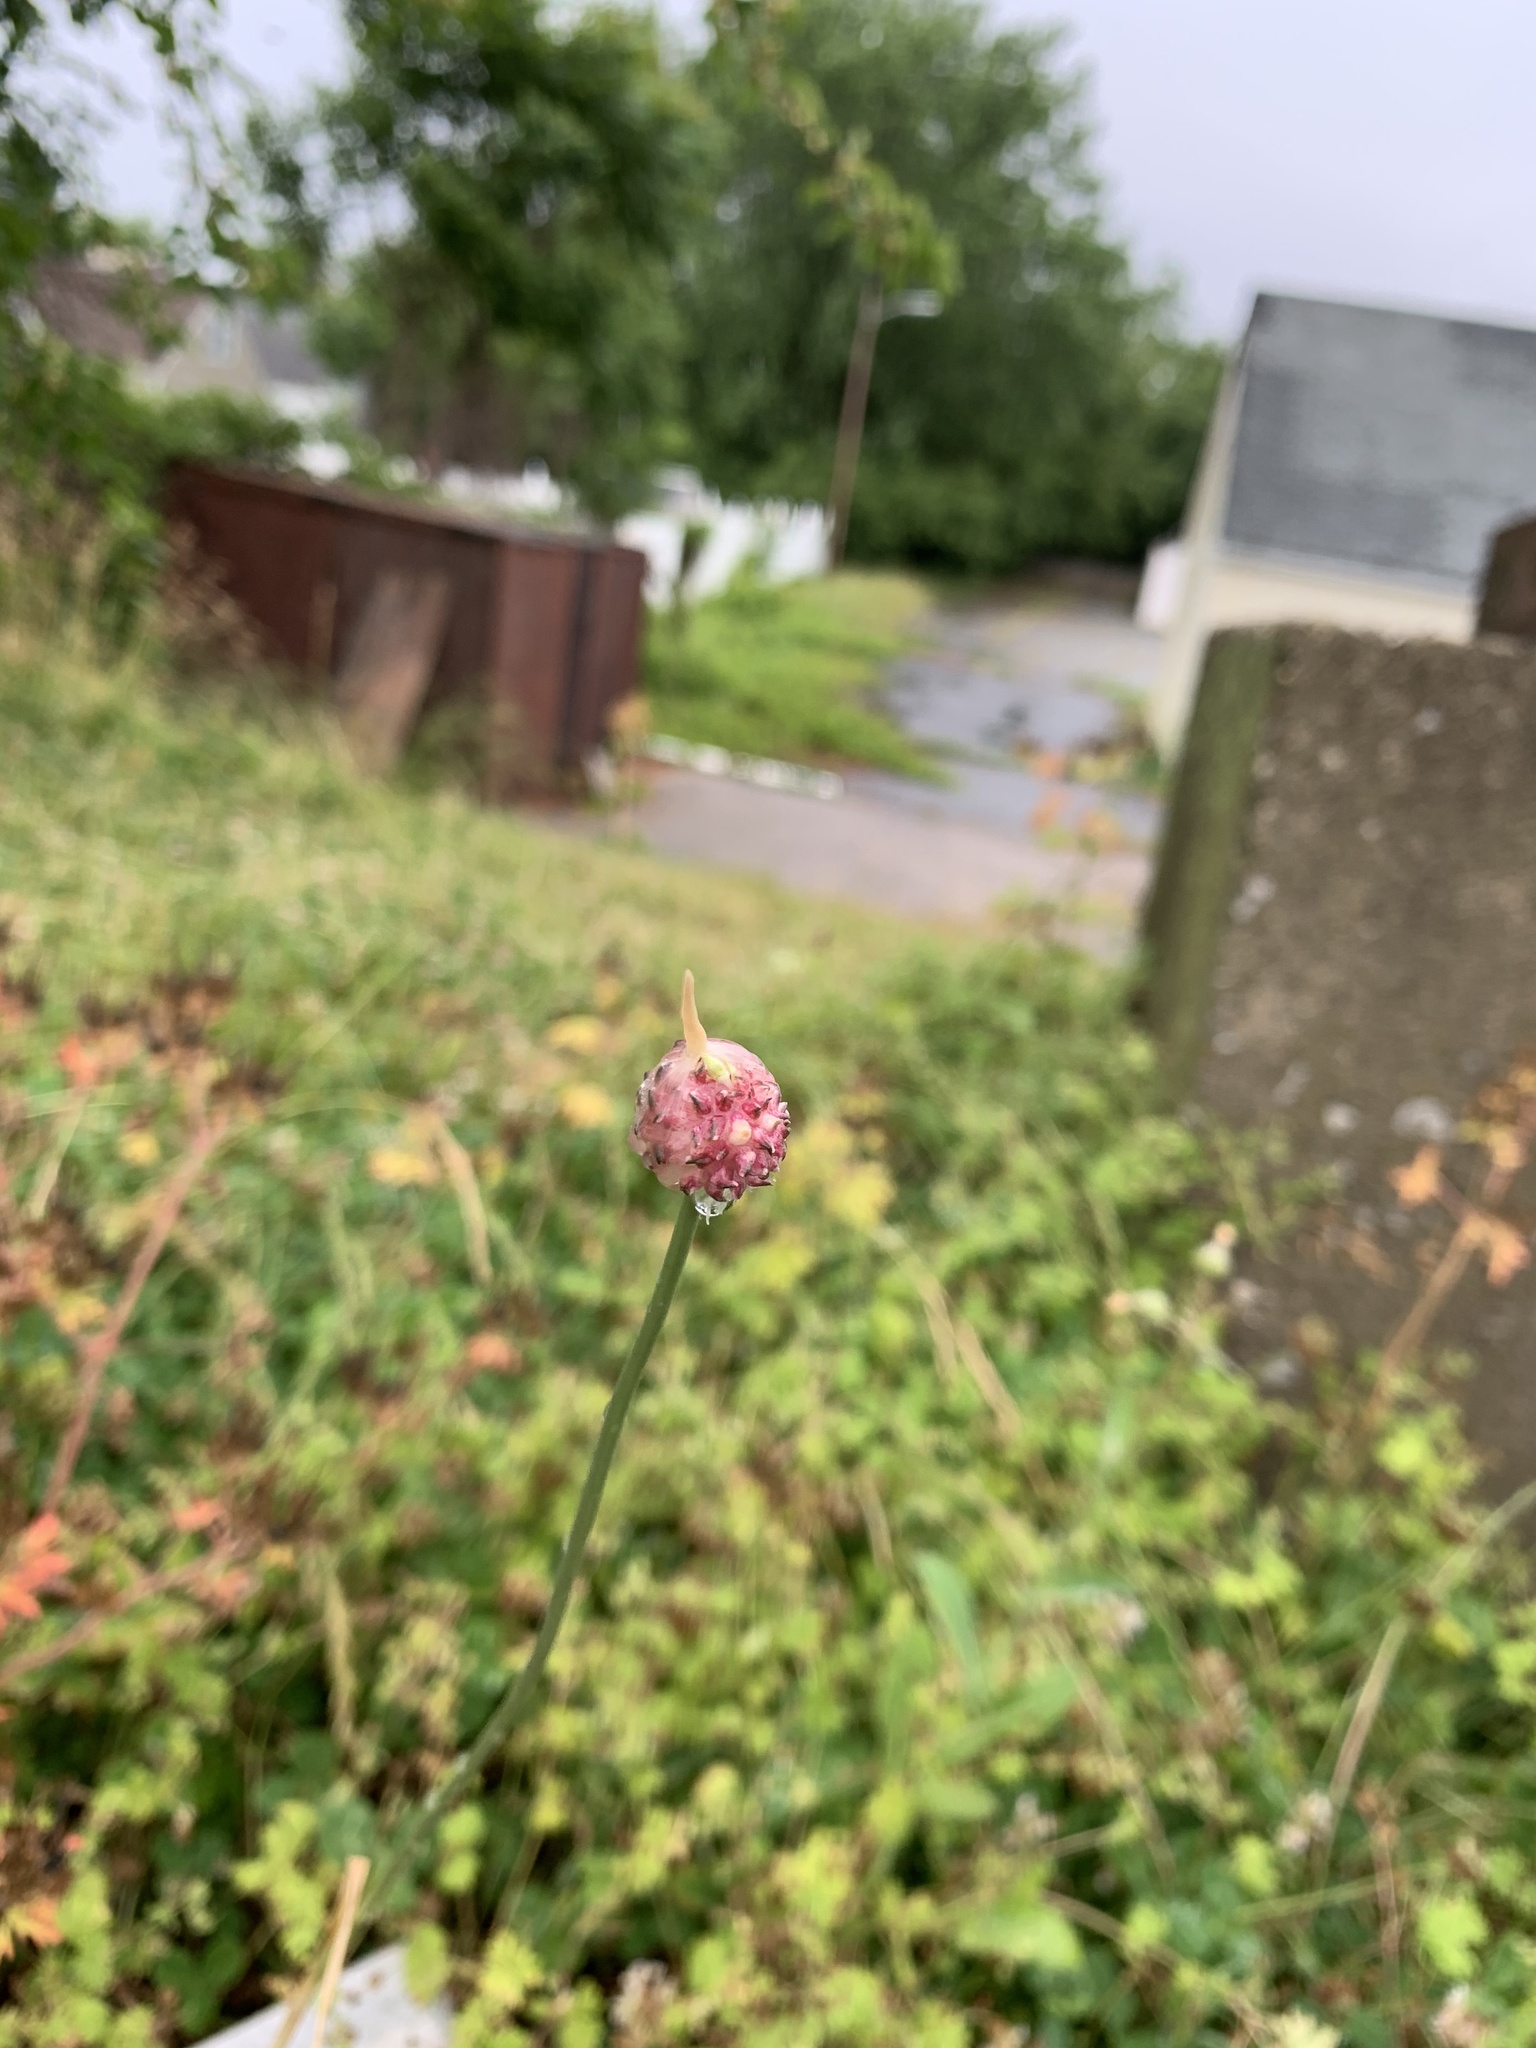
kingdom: Plantae
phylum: Tracheophyta
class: Liliopsida
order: Asparagales
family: Amaryllidaceae
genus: Allium
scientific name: Allium vineale
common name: Crow garlic
